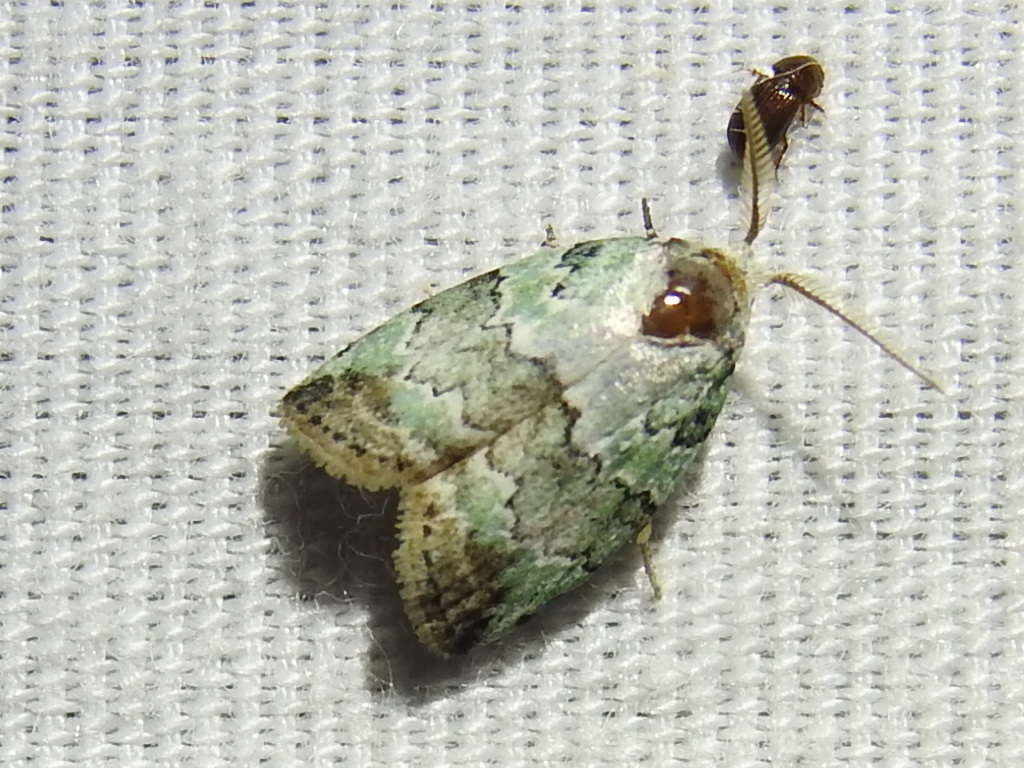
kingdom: Animalia
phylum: Arthropoda
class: Insecta
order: Lepidoptera
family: Nolidae
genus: Afrida
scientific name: Afrida ydatodes
